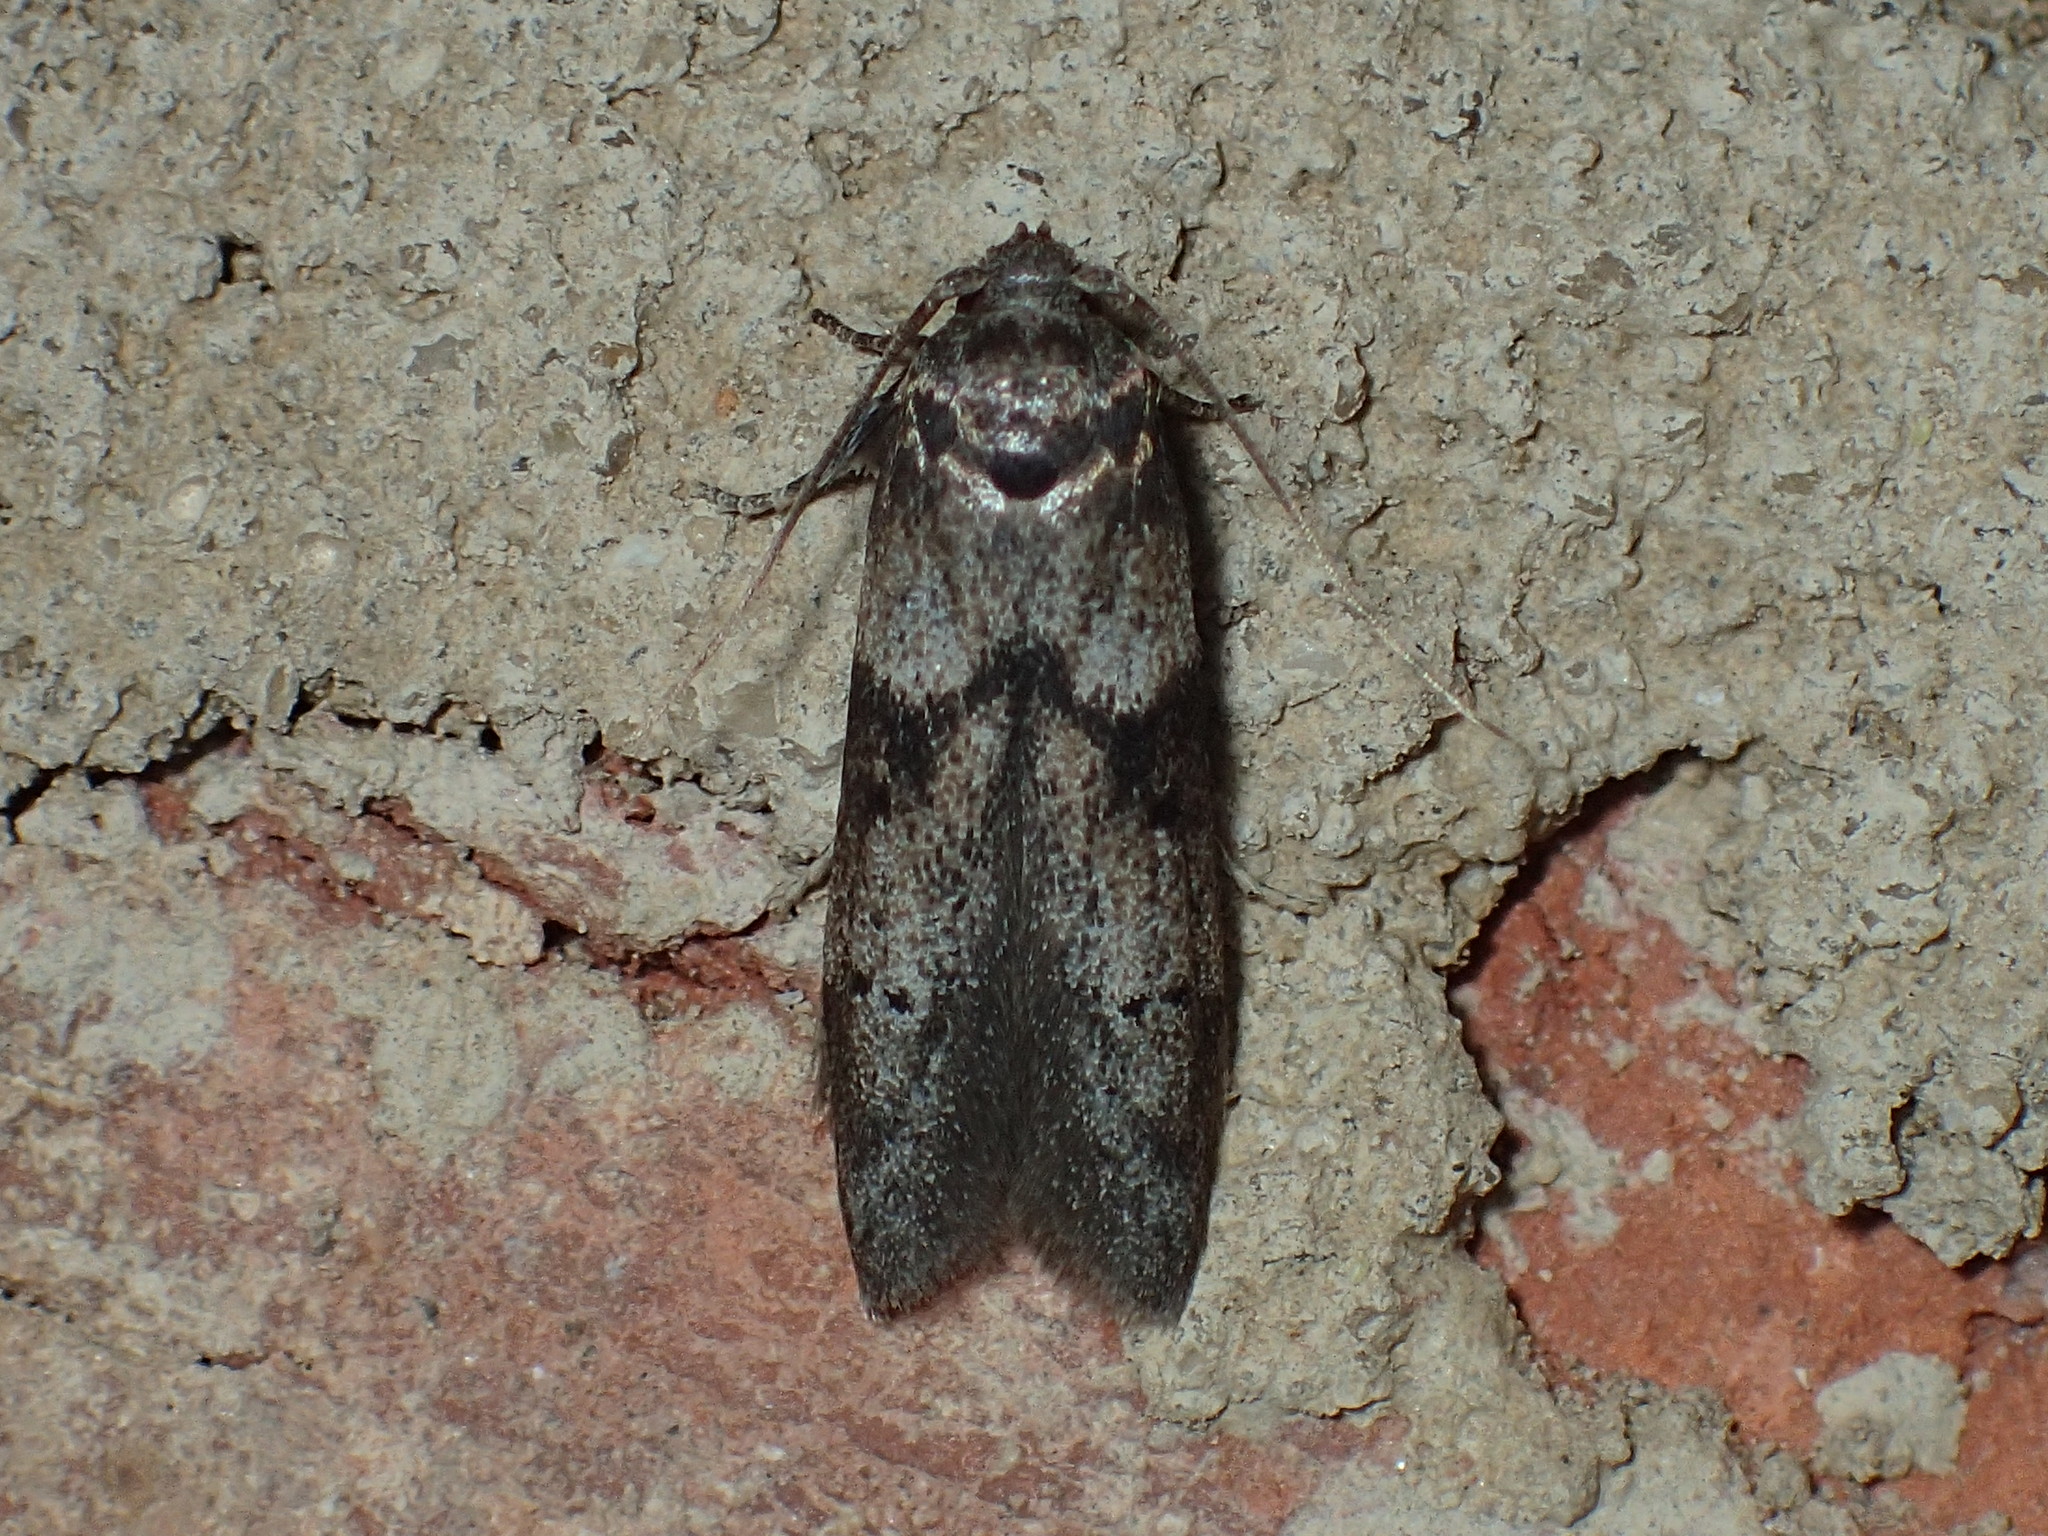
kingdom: Animalia
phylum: Arthropoda
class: Insecta
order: Lepidoptera
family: Blastobasidae
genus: Blastobasis
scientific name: Blastobasis glandulella
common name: Acorn moth
